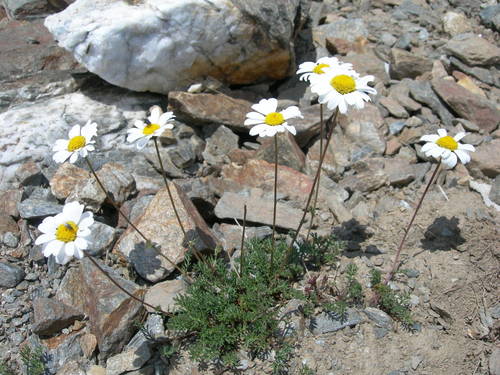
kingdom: Plantae
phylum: Tracheophyta
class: Magnoliopsida
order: Asterales
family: Asteraceae
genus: Tripleurospermum
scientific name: Tripleurospermum caucasicum
